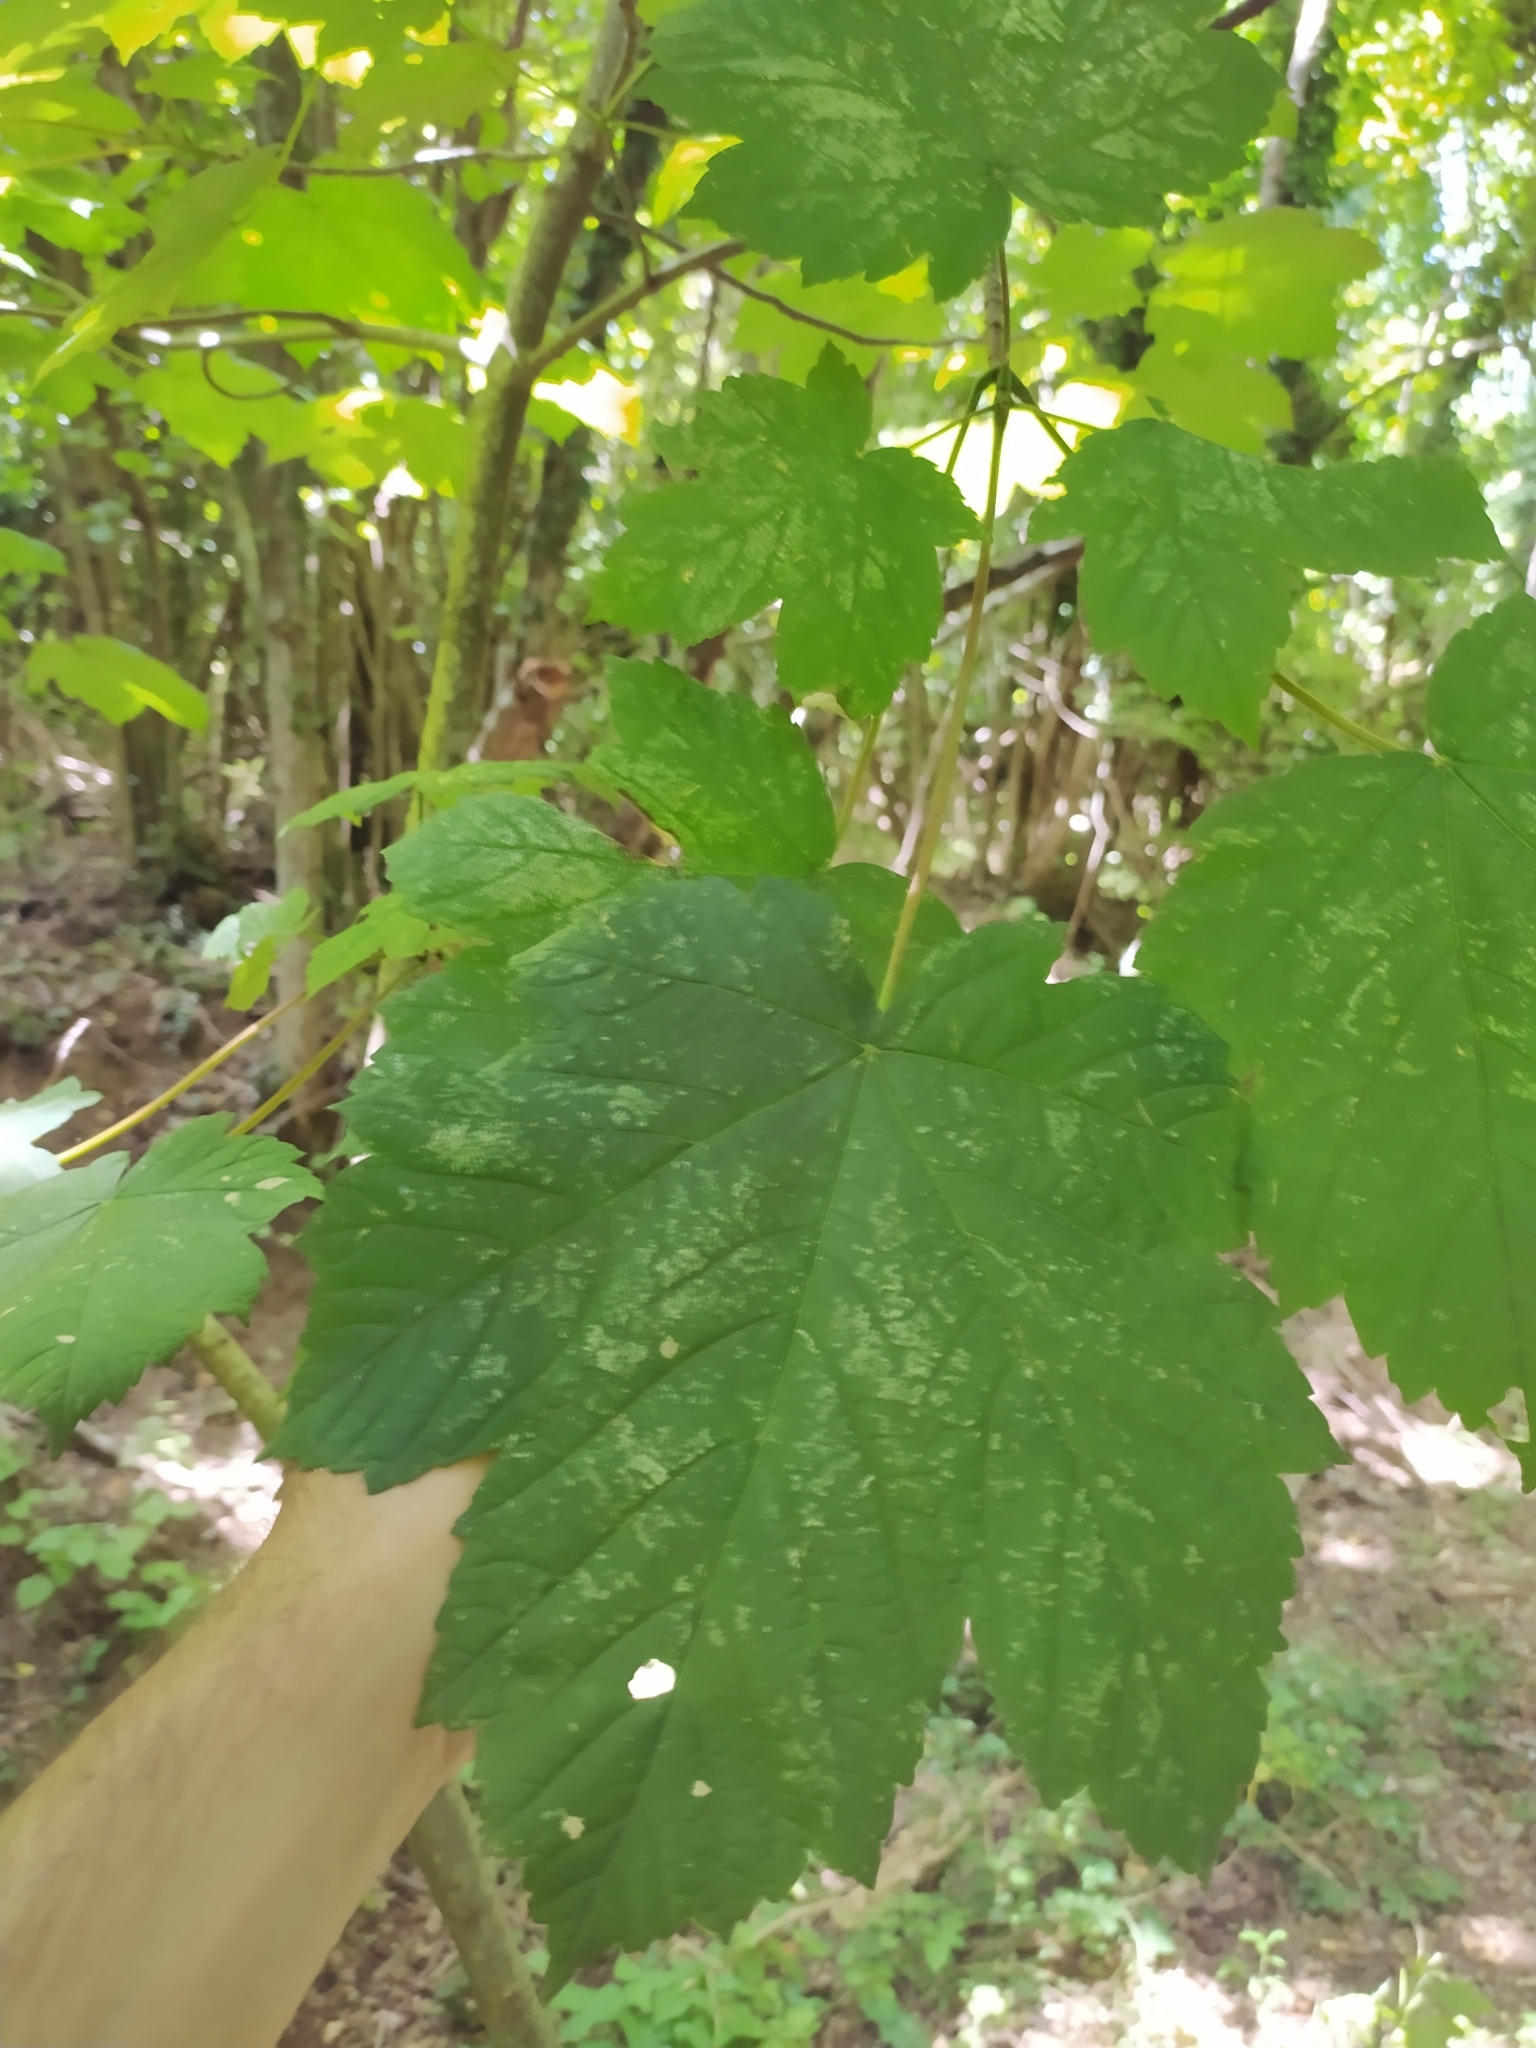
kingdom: Plantae
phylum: Tracheophyta
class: Magnoliopsida
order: Sapindales
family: Sapindaceae
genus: Acer
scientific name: Acer pseudoplatanus
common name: Sycamore
